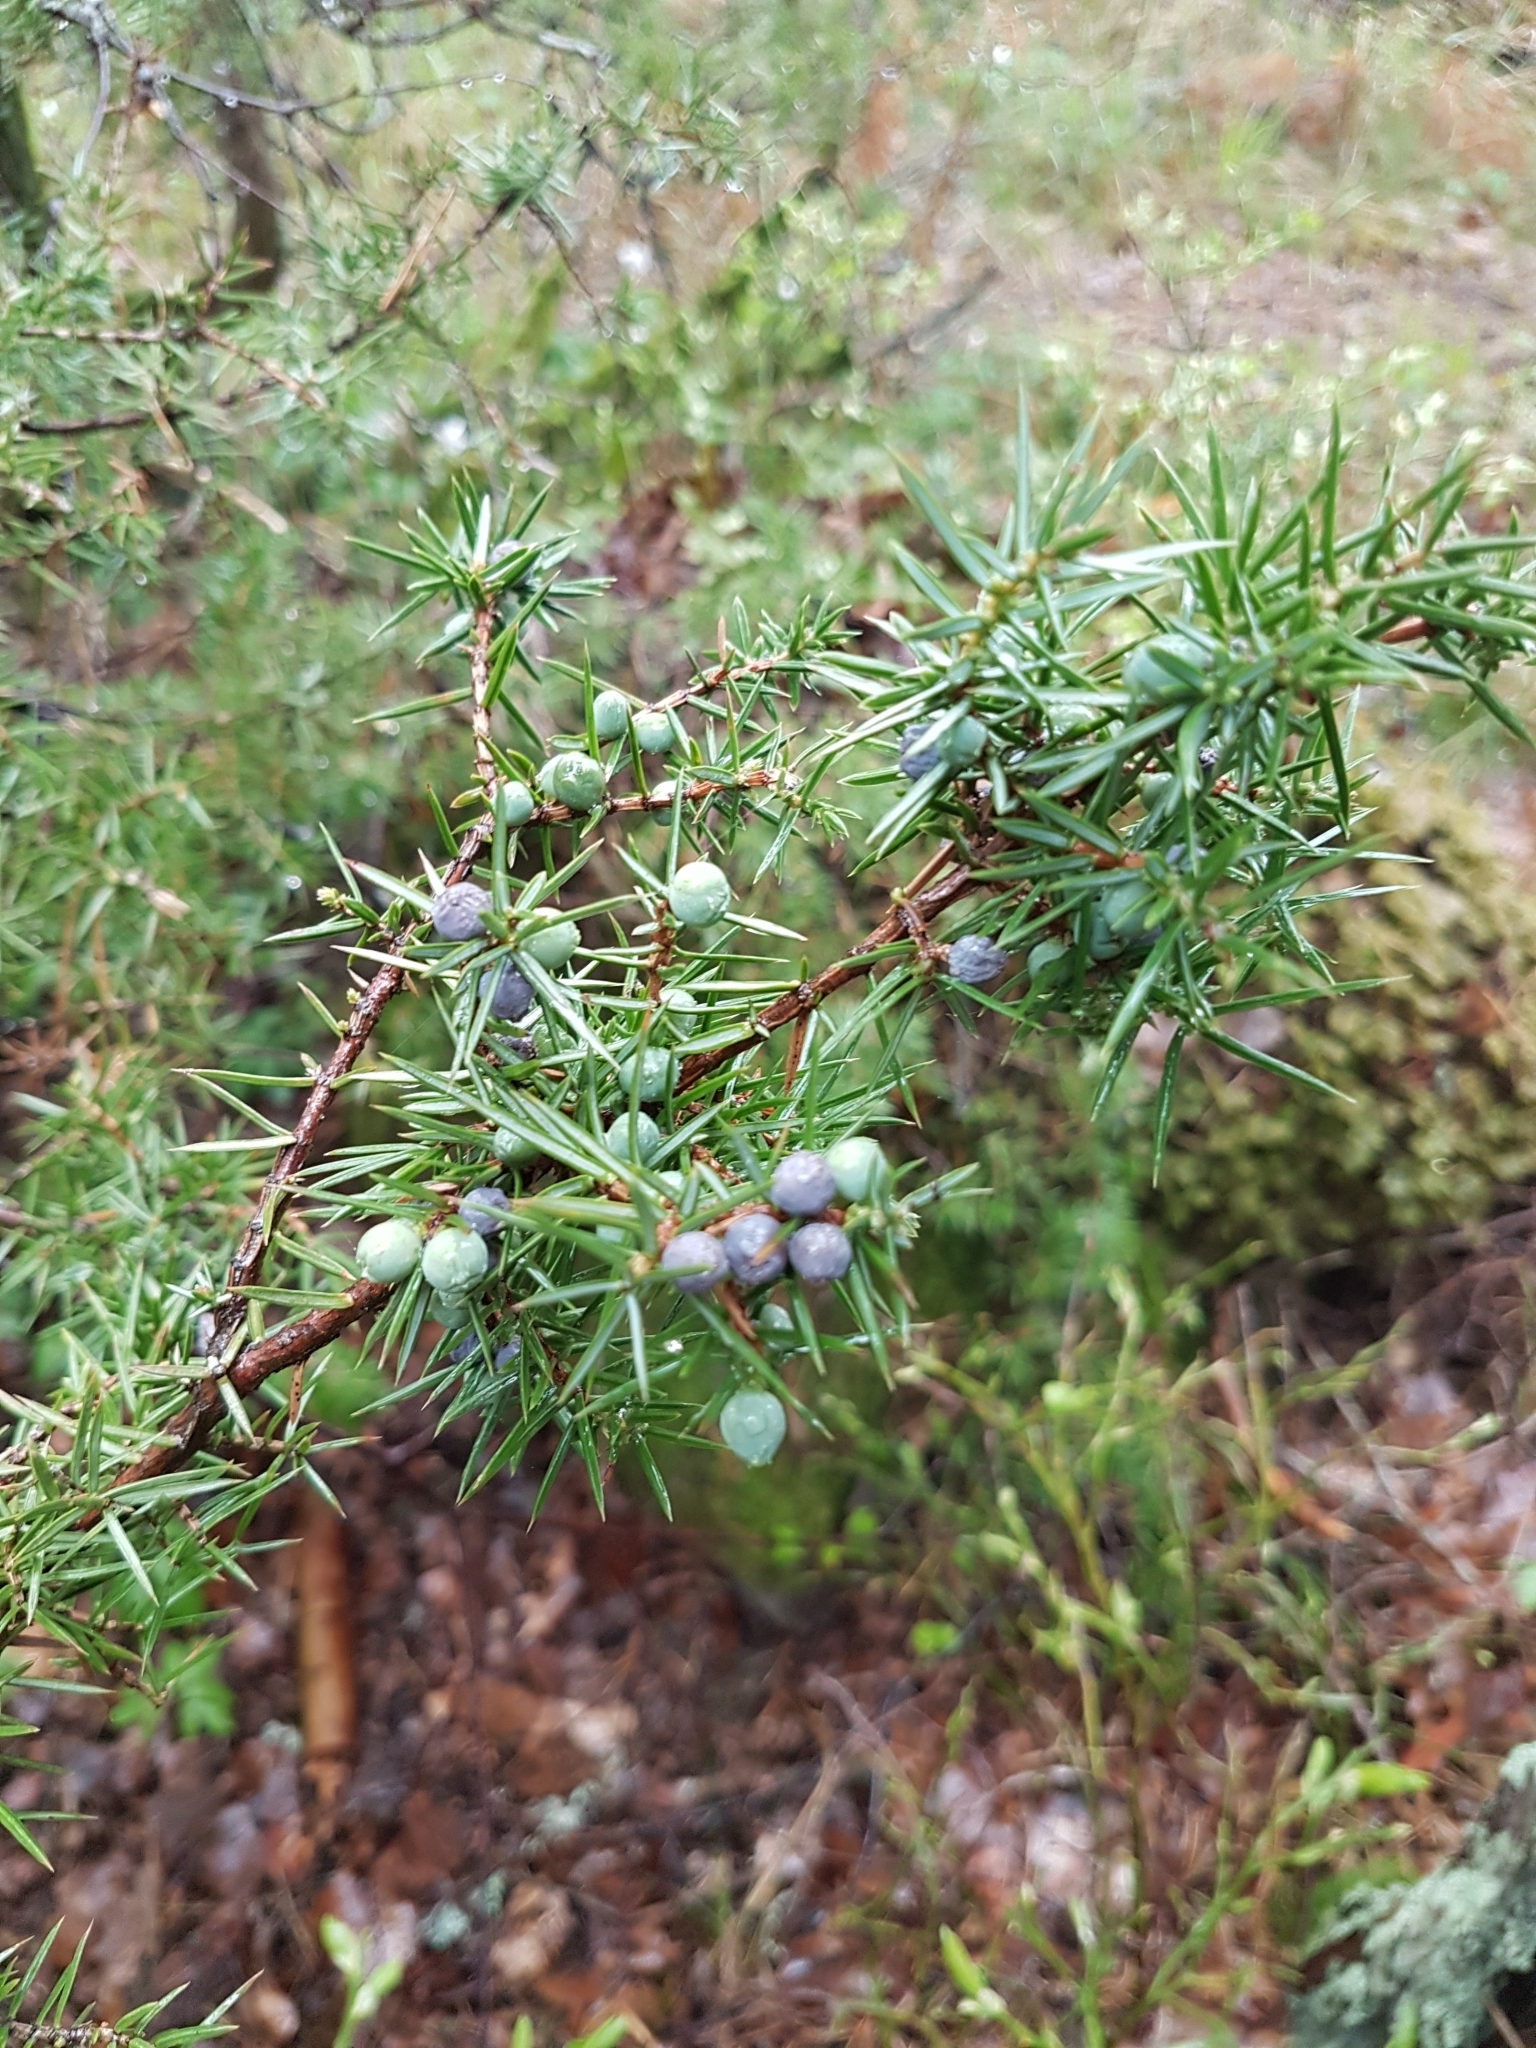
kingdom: Plantae
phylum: Tracheophyta
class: Pinopsida
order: Pinales
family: Cupressaceae
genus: Juniperus
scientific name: Juniperus communis
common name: Common juniper
